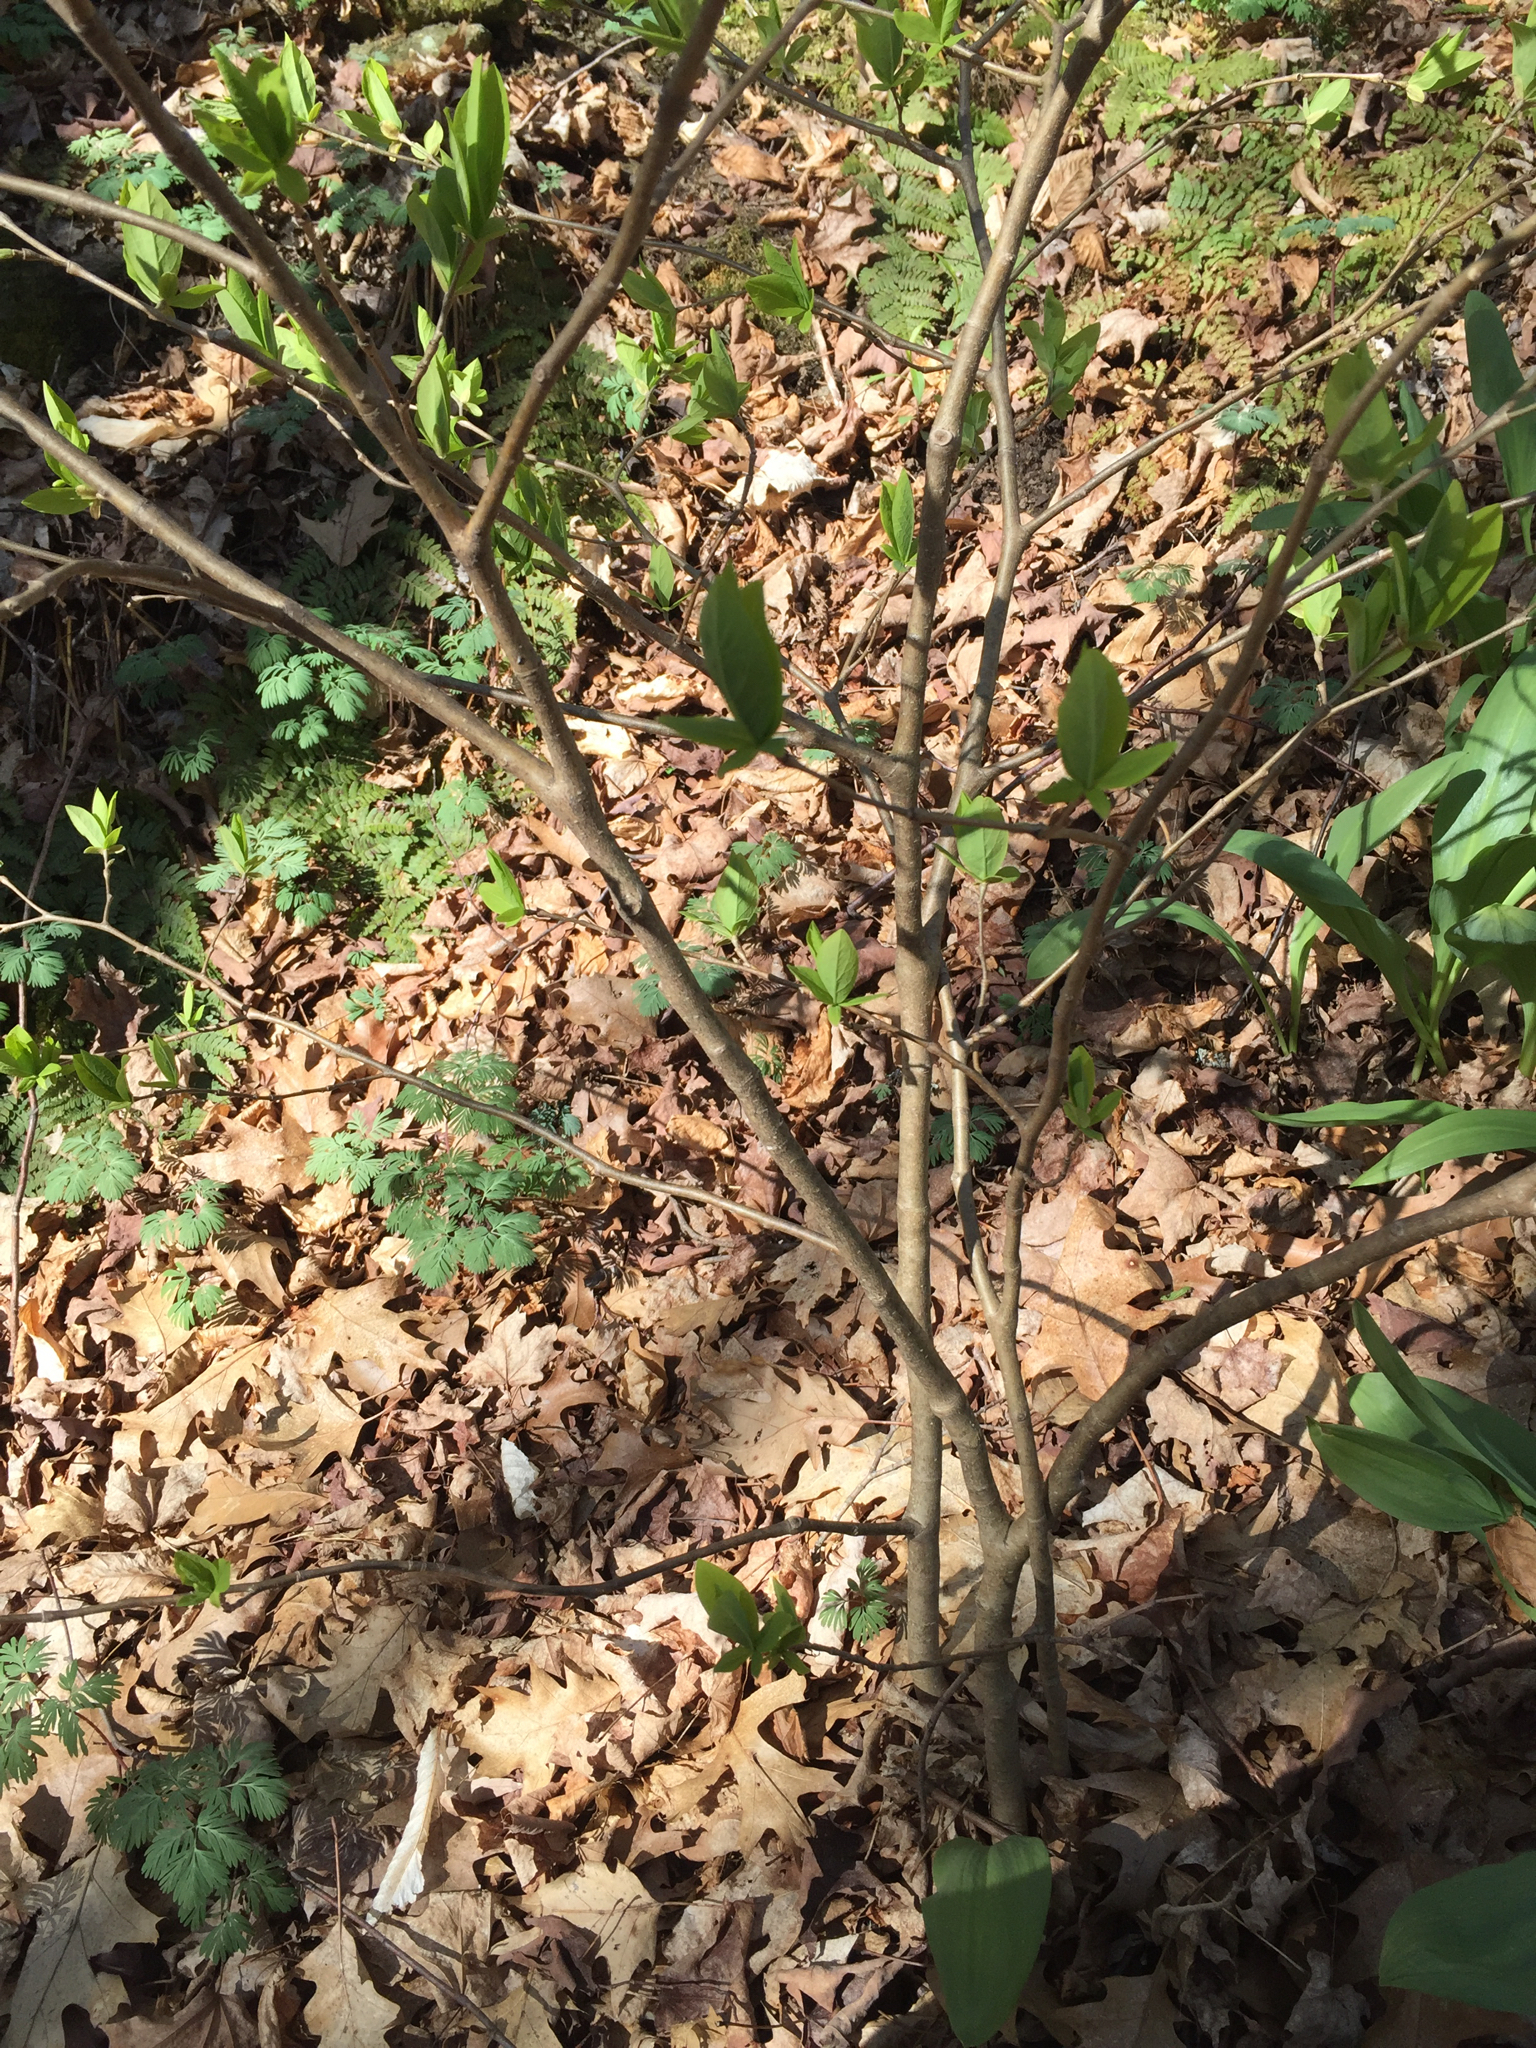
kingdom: Plantae
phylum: Tracheophyta
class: Magnoliopsida
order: Malvales
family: Thymelaeaceae
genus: Dirca
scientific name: Dirca palustris
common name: Leatherwood
